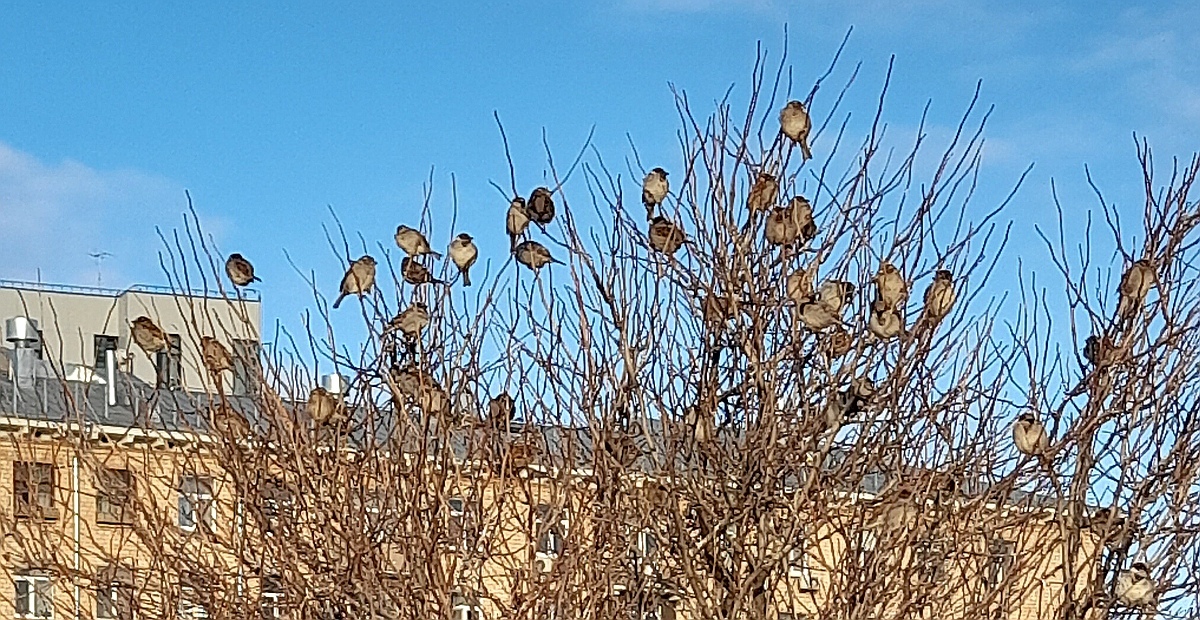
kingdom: Animalia
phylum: Chordata
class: Aves
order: Passeriformes
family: Passeridae
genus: Passer
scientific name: Passer domesticus
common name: House sparrow
